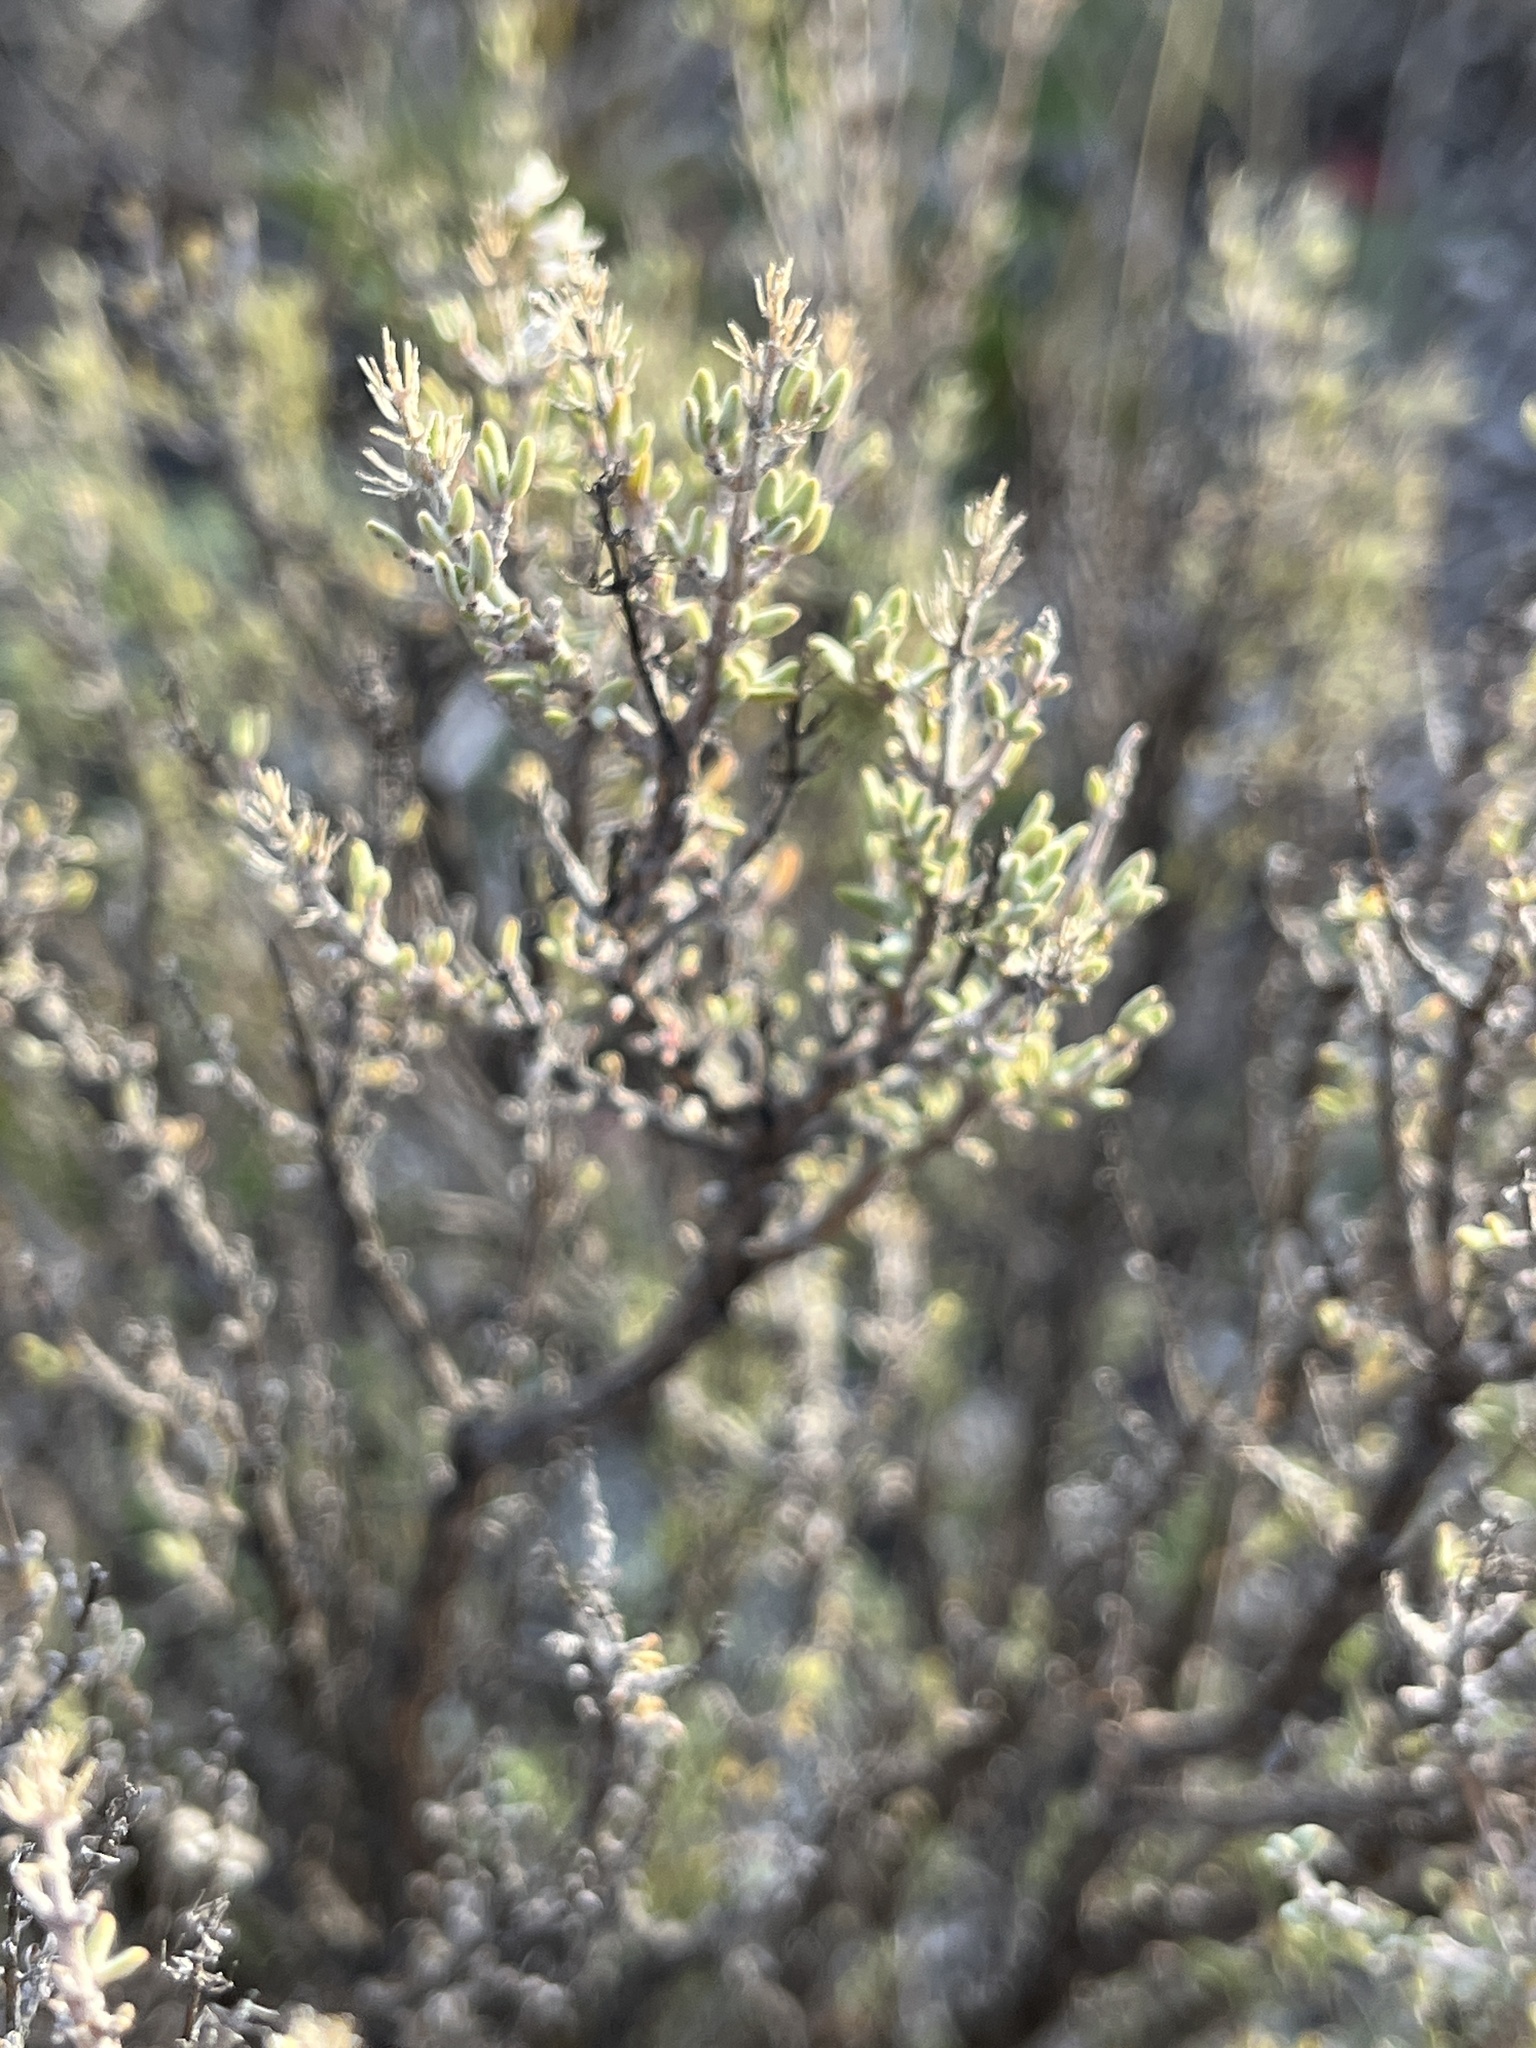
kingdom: Plantae
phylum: Tracheophyta
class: Magnoliopsida
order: Lamiales
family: Lamiaceae
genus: Thymus
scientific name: Thymus vulgaris
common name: Garden thyme
